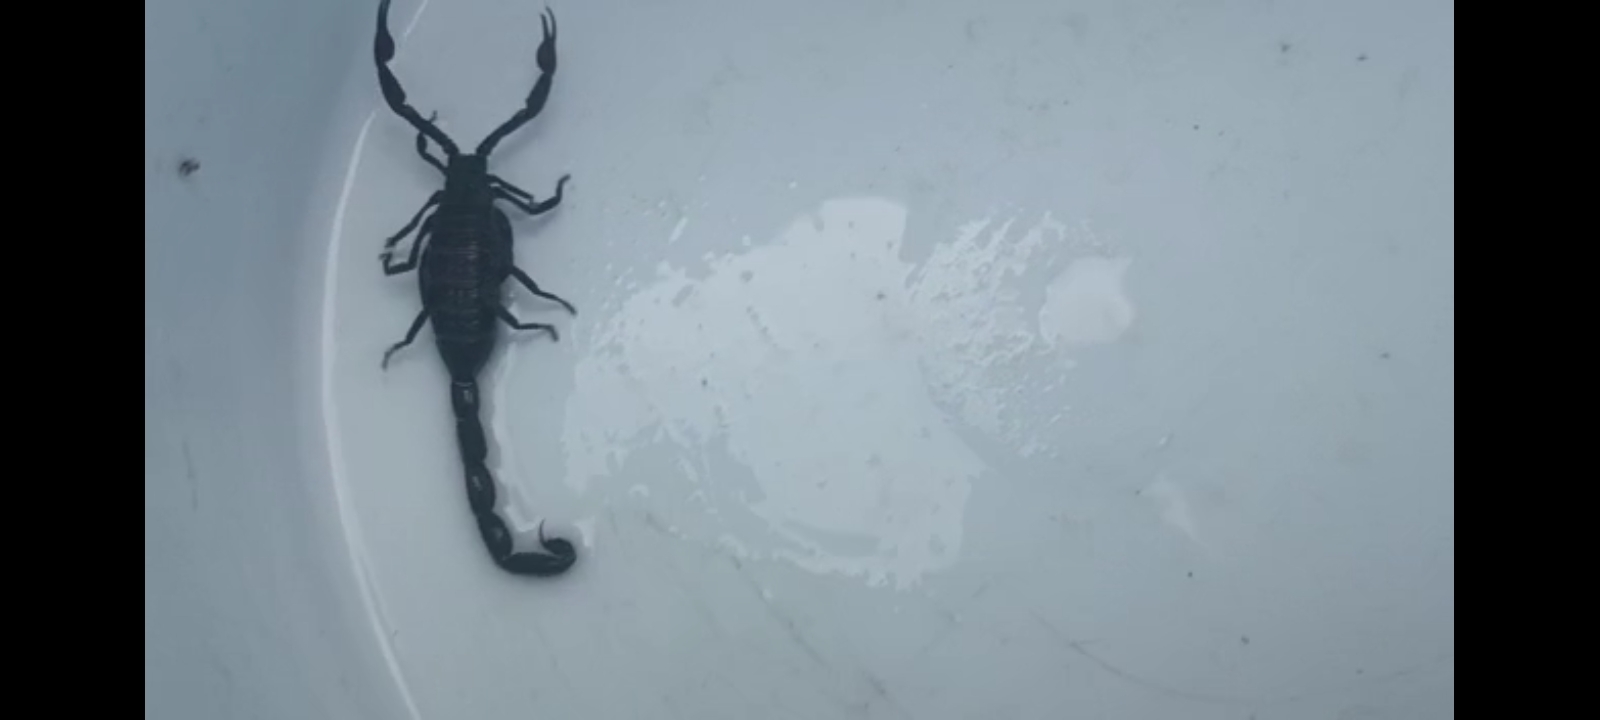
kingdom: Animalia
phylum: Arthropoda
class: Arachnida
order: Scorpiones
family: Buthidae
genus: Centruroides
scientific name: Centruroides gracilis
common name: Scorpions
